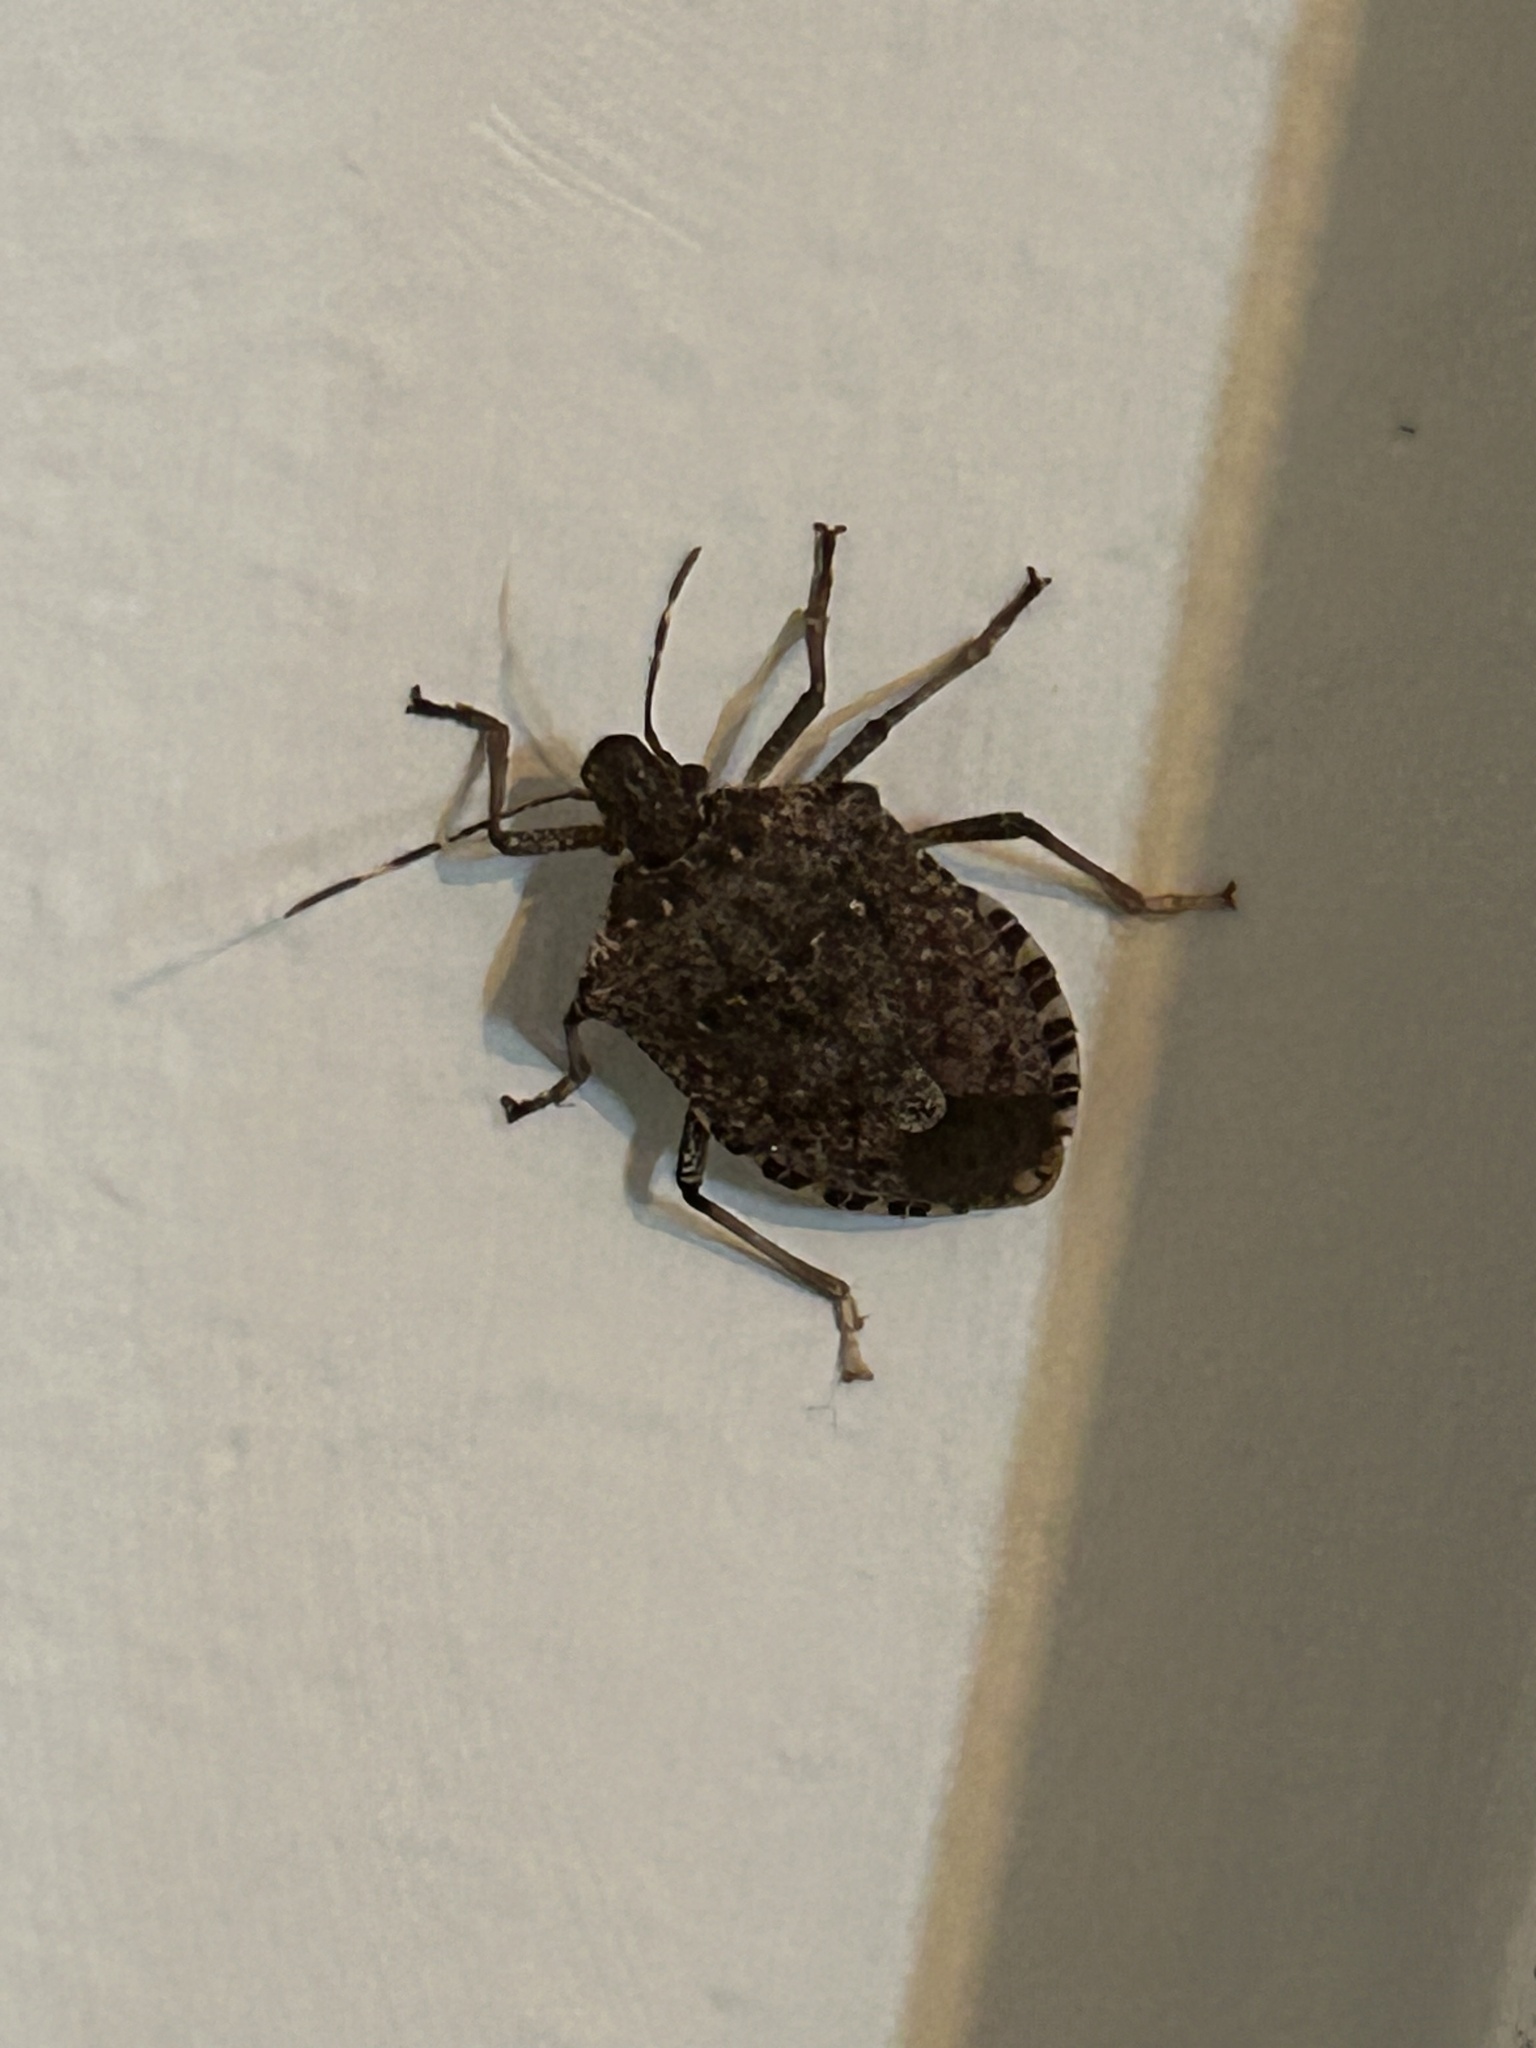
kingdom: Animalia
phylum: Arthropoda
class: Insecta
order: Hemiptera
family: Pentatomidae
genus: Halyomorpha
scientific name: Halyomorpha halys
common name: Brown marmorated stink bug
